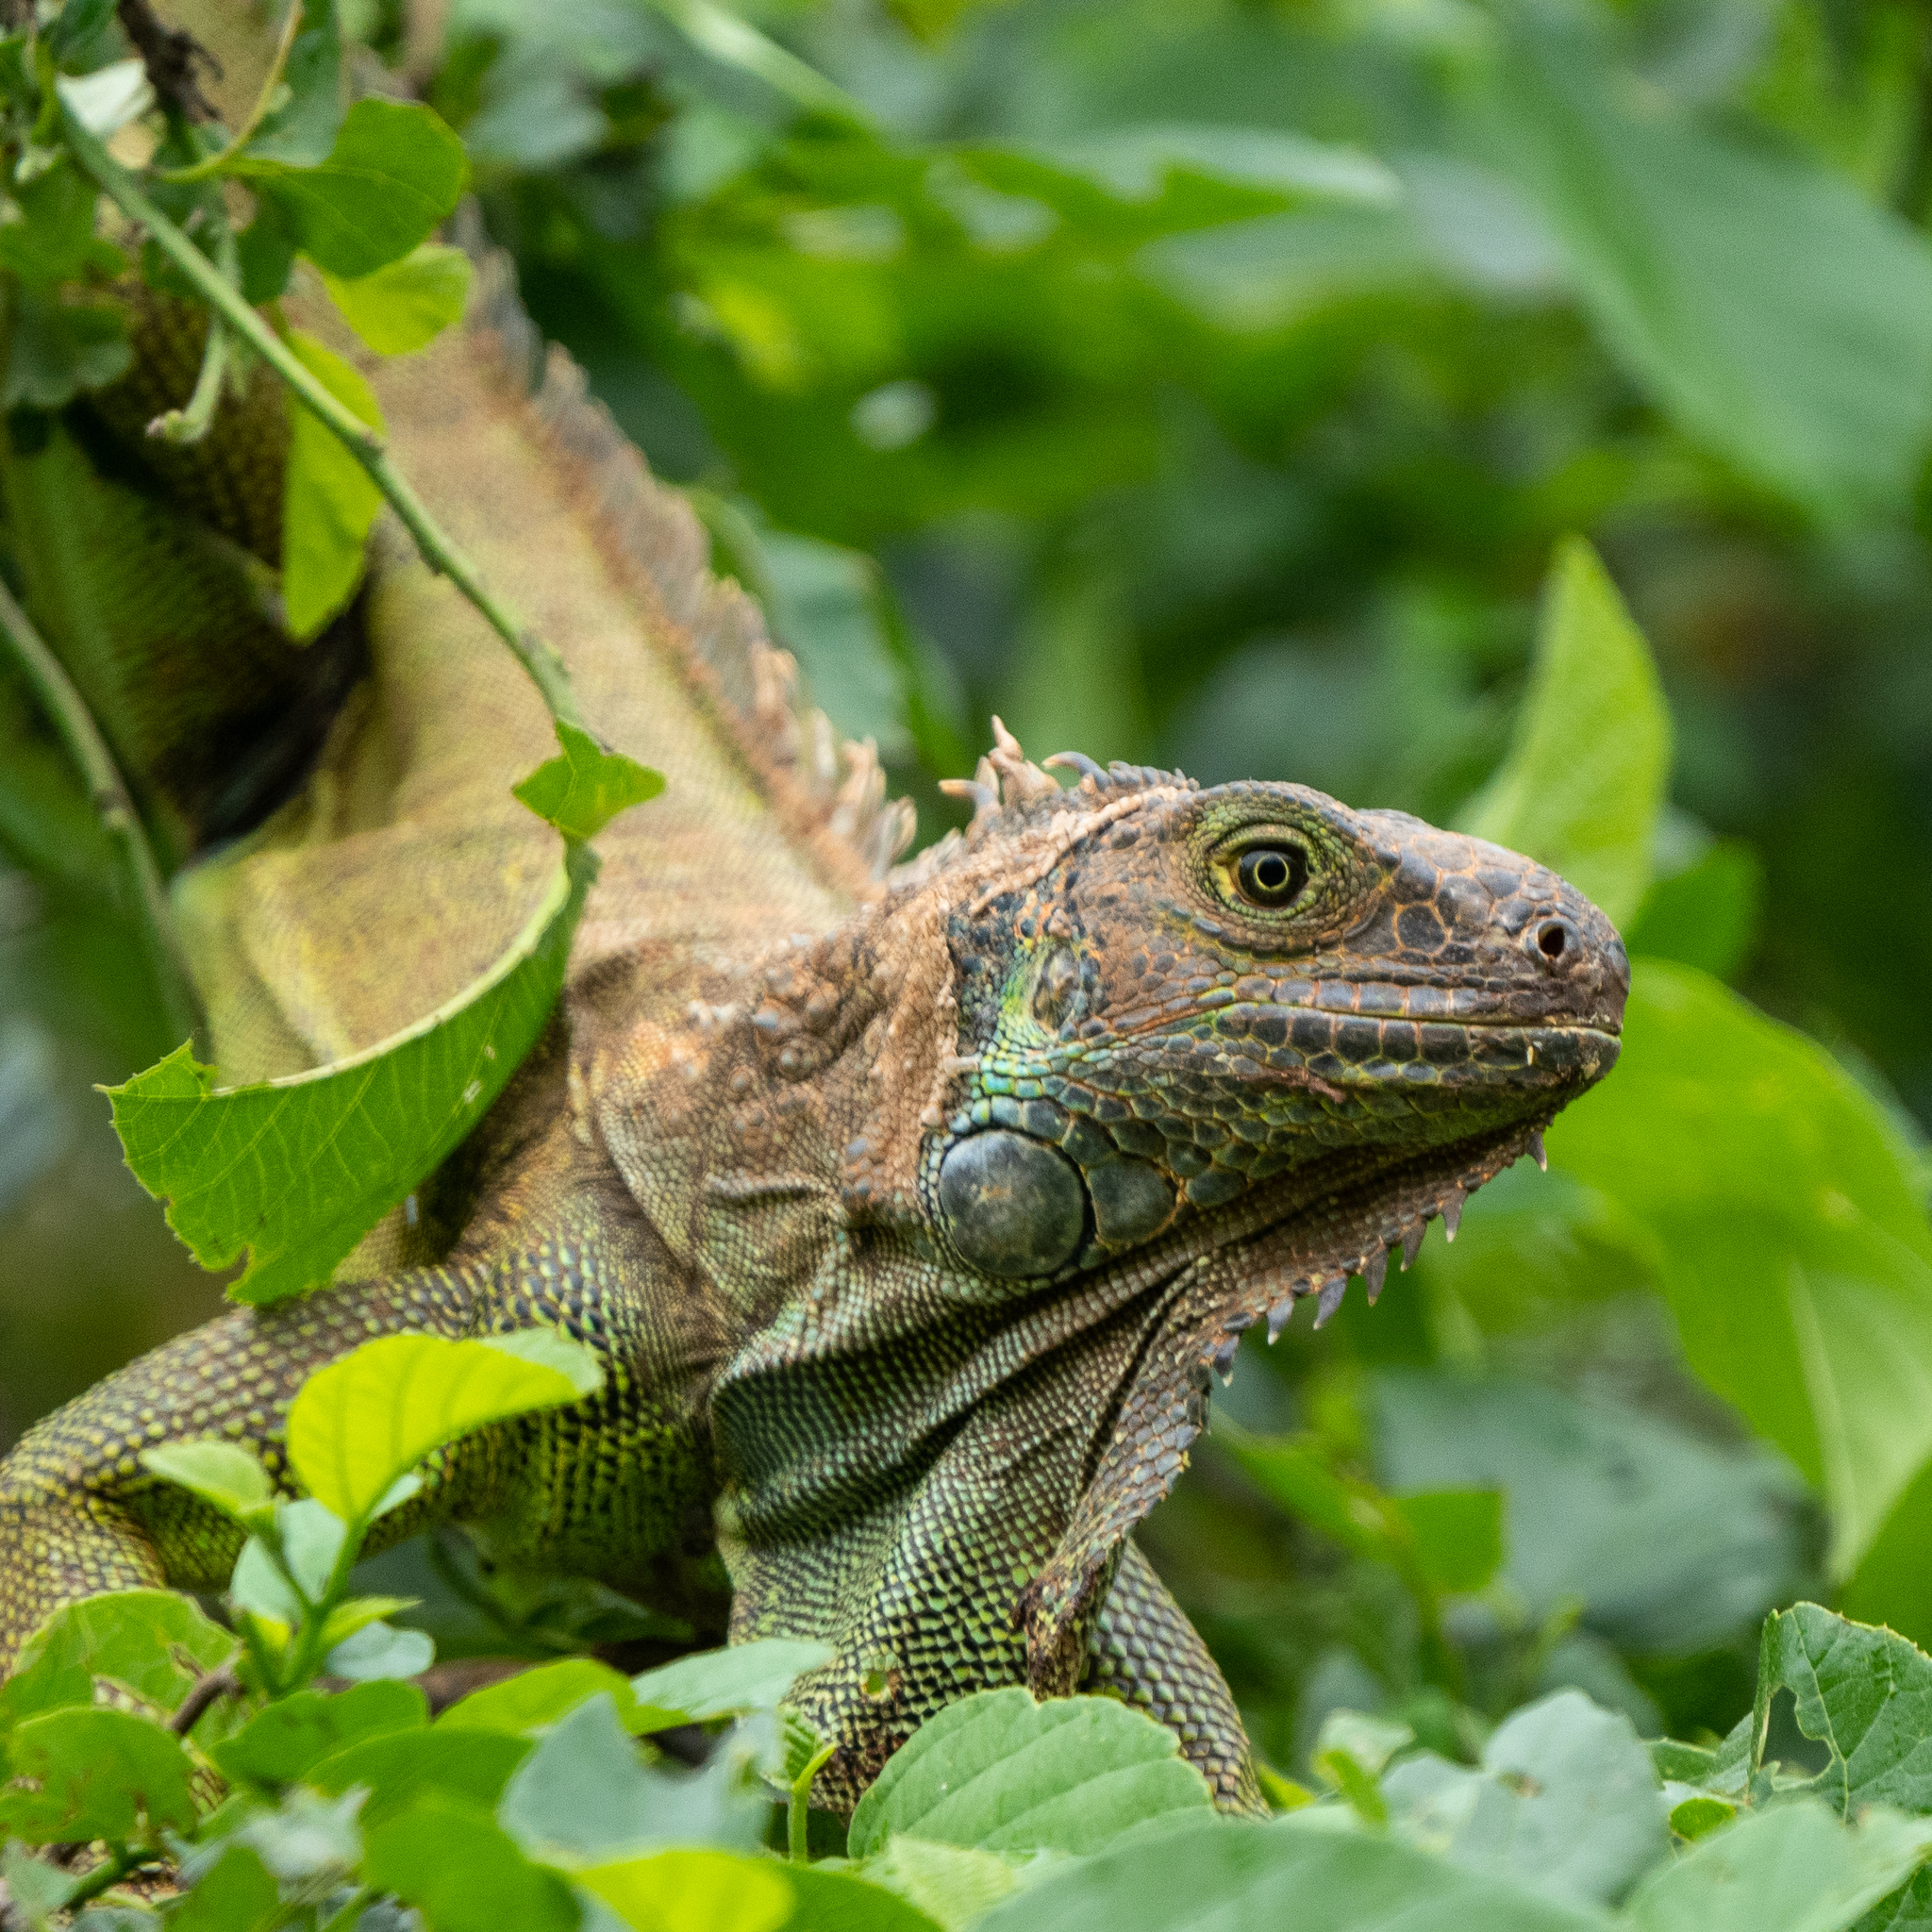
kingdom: Animalia
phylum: Chordata
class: Squamata
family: Iguanidae
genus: Iguana
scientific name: Iguana iguana
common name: Green iguana
